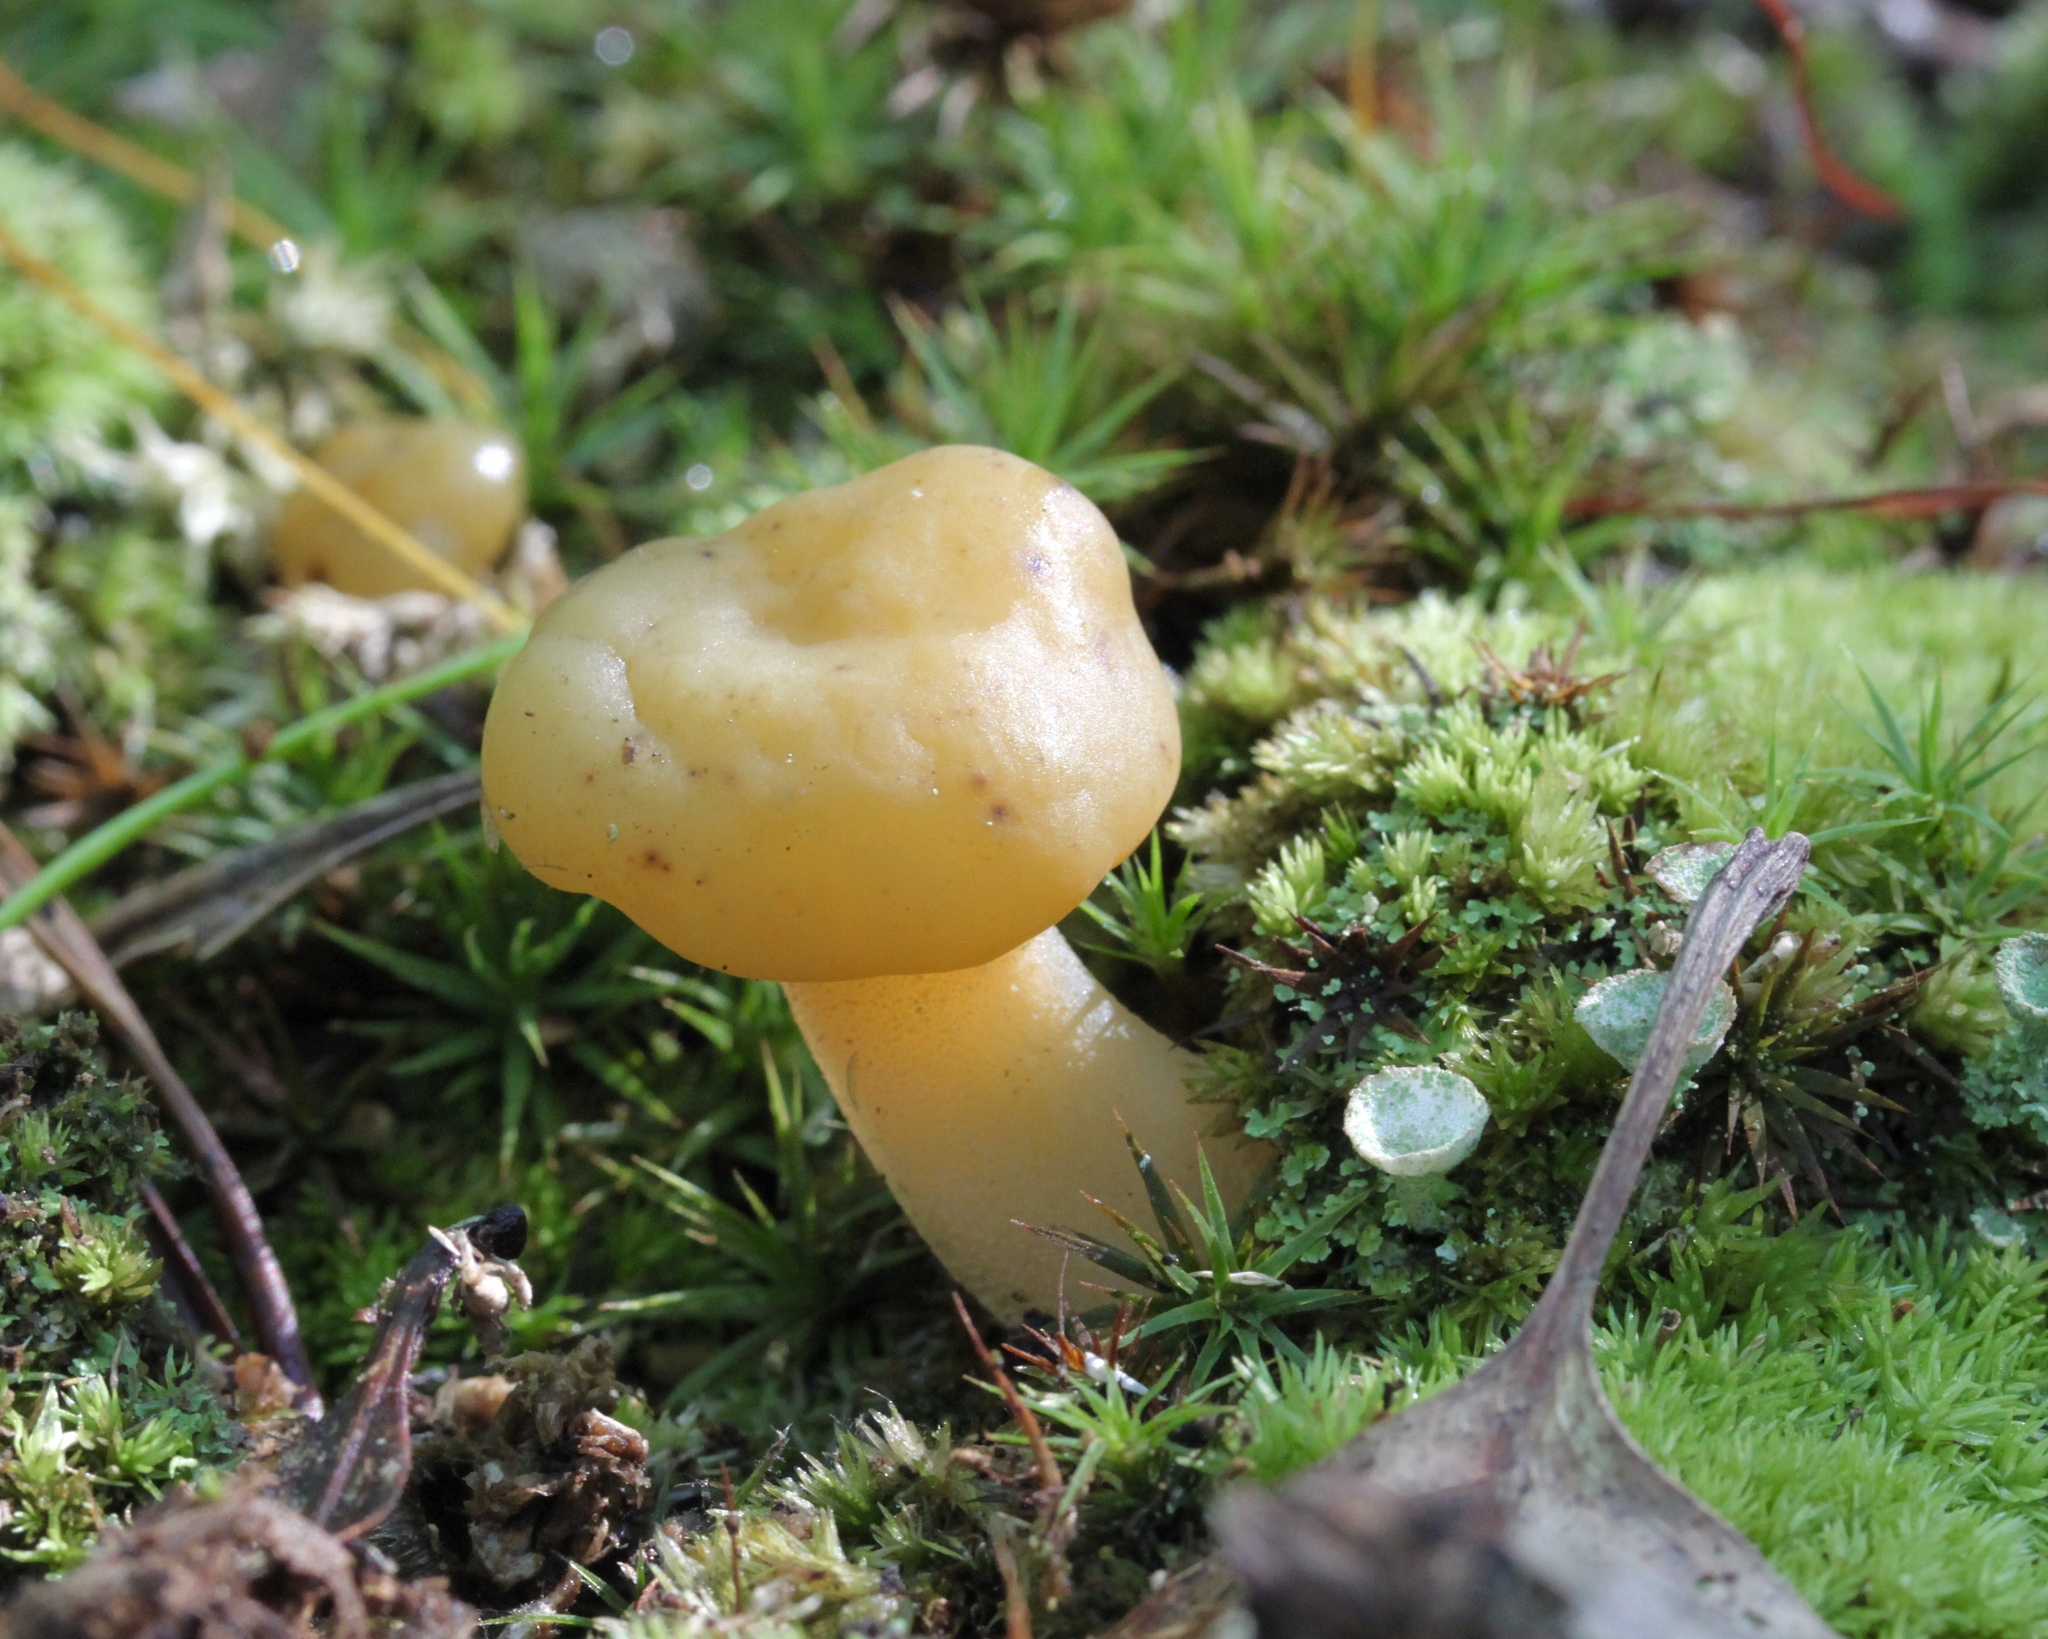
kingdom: Fungi
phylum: Ascomycota
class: Leotiomycetes
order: Leotiales
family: Leotiaceae
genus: Leotia
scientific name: Leotia lubrica
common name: Jellybaby
